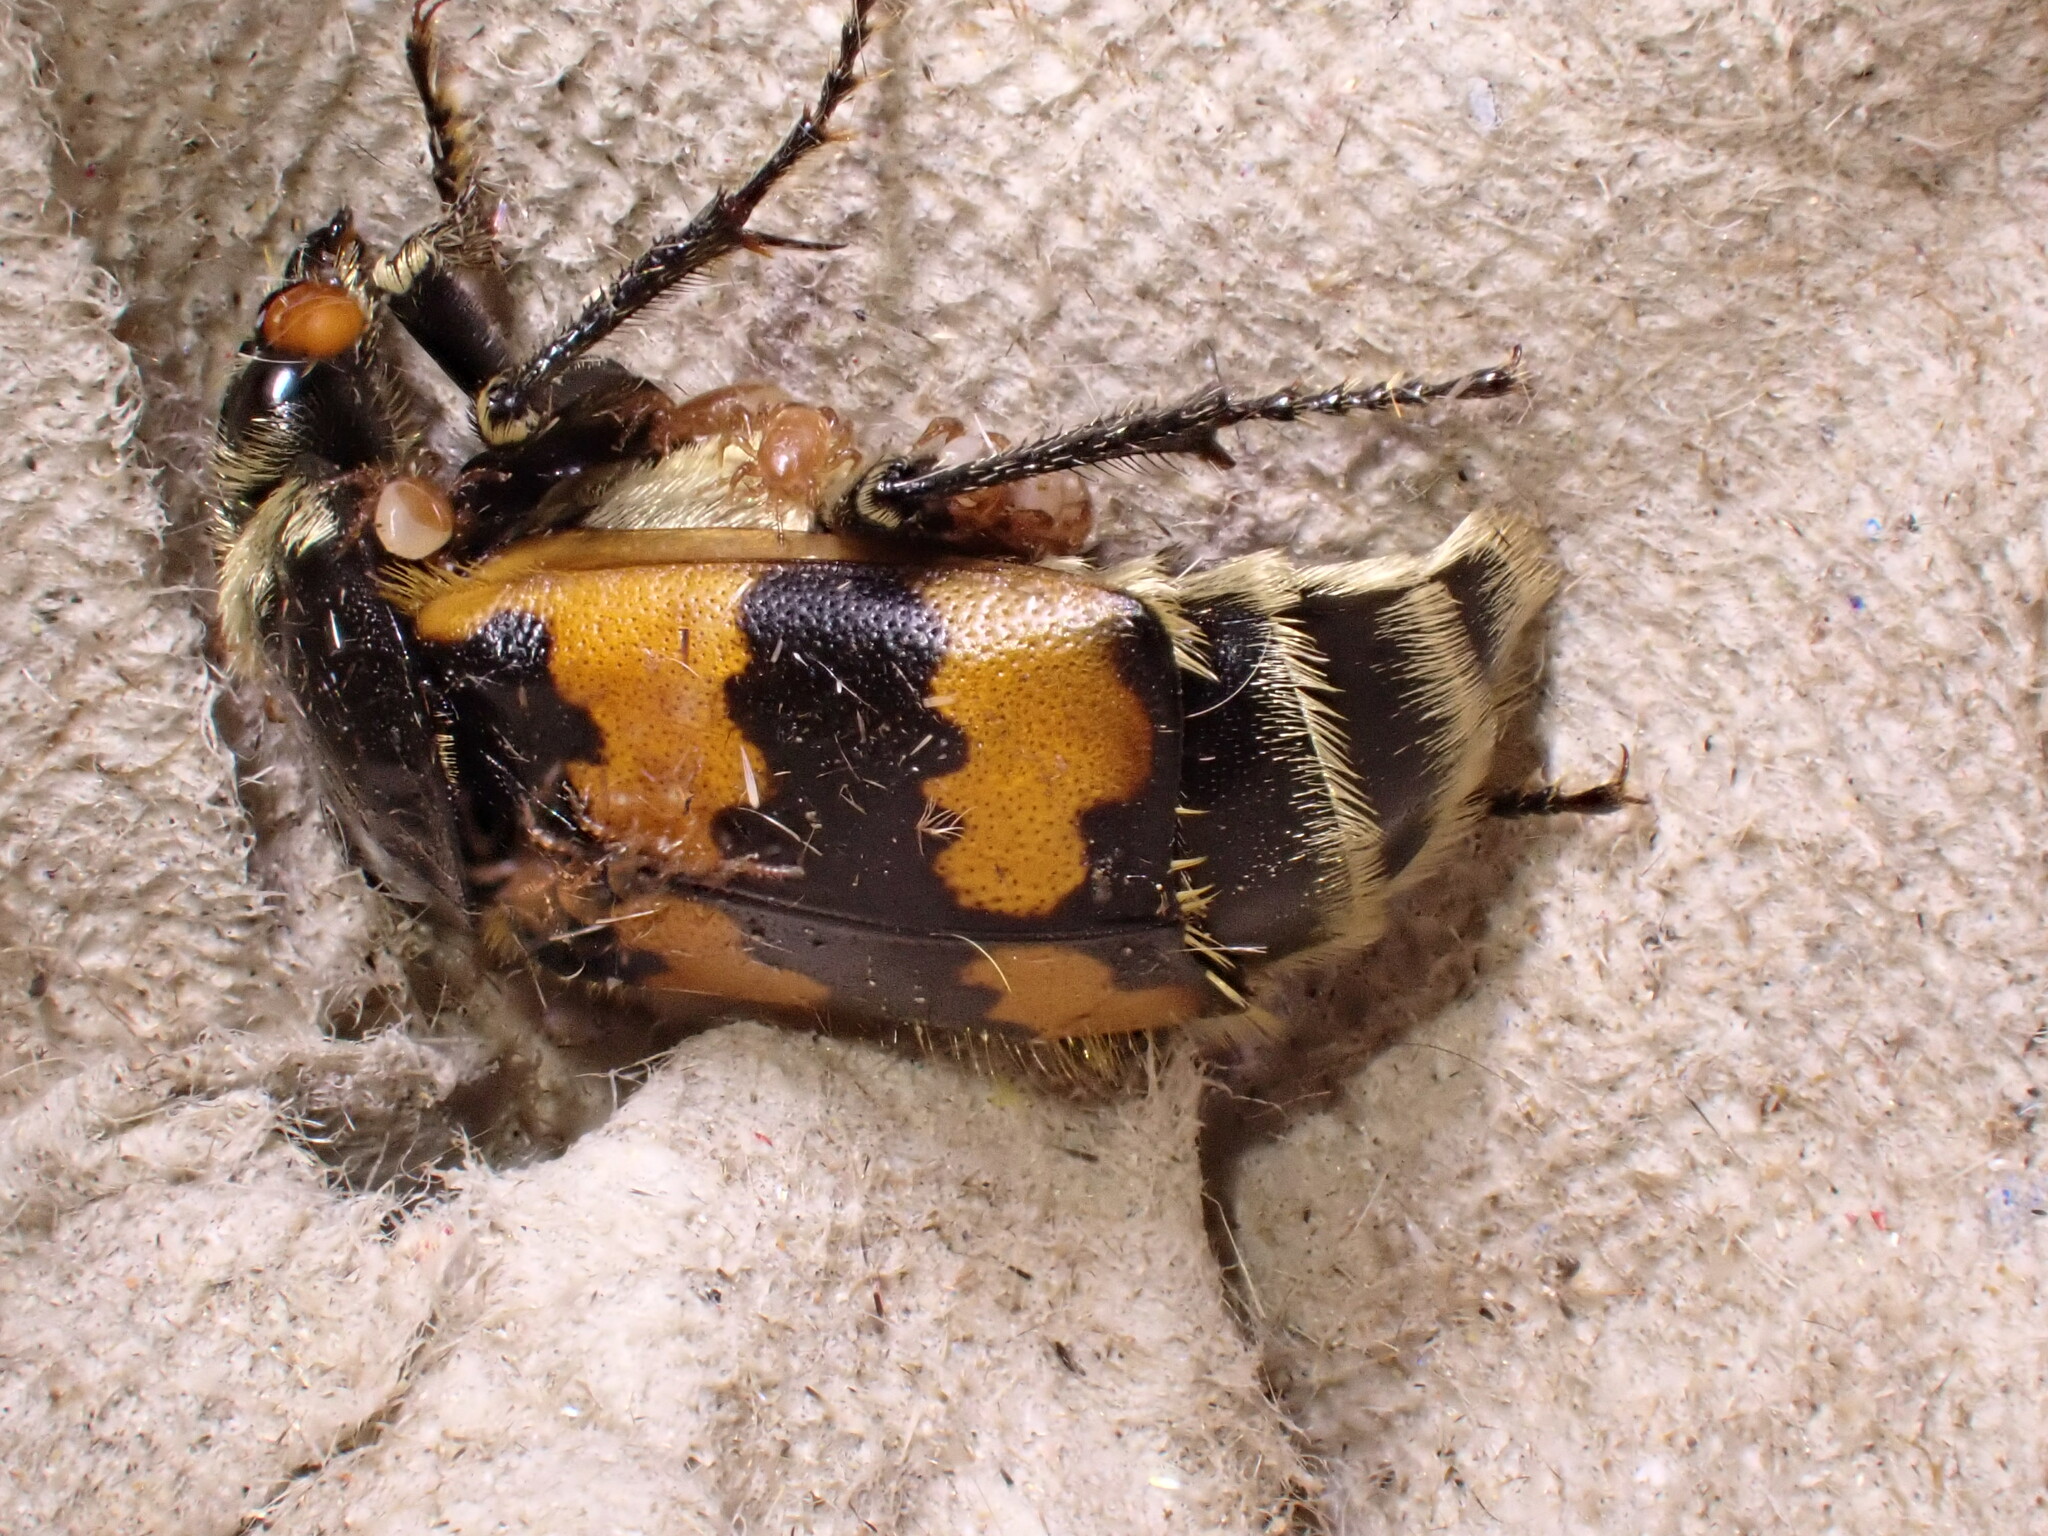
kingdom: Animalia
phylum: Arthropoda
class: Insecta
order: Coleoptera
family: Staphylinidae
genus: Nicrophorus
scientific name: Nicrophorus vespillo
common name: Common burying beetle
